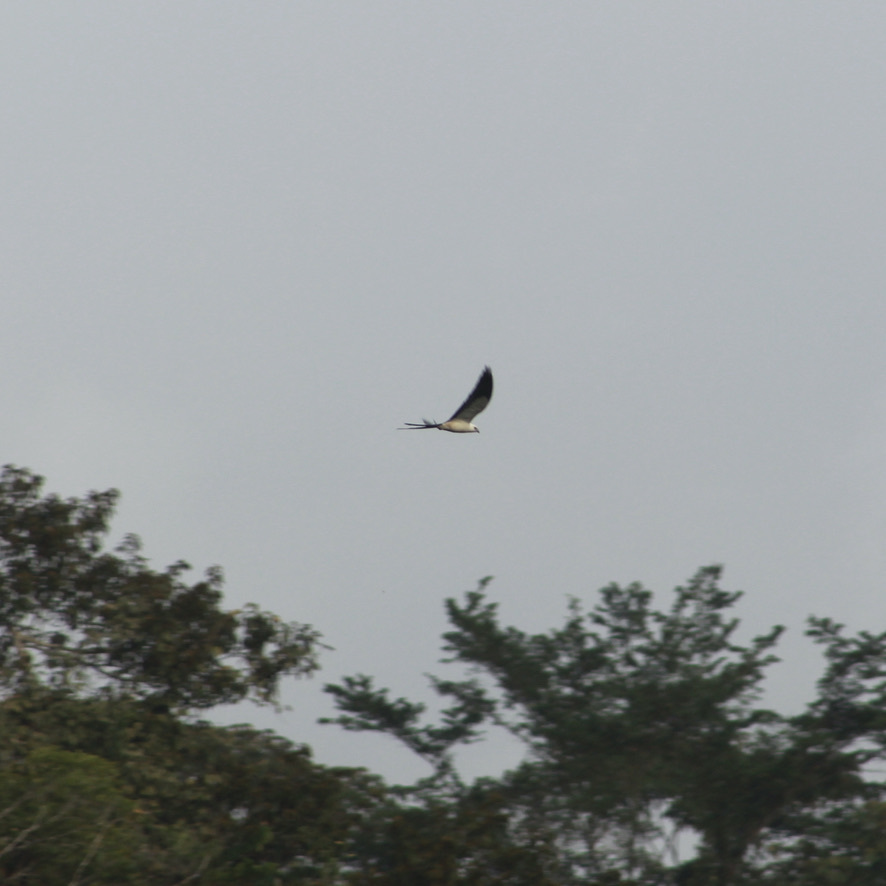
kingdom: Animalia
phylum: Chordata
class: Aves
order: Accipitriformes
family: Accipitridae
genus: Elanoides
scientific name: Elanoides forficatus
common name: Swallow-tailed kite
